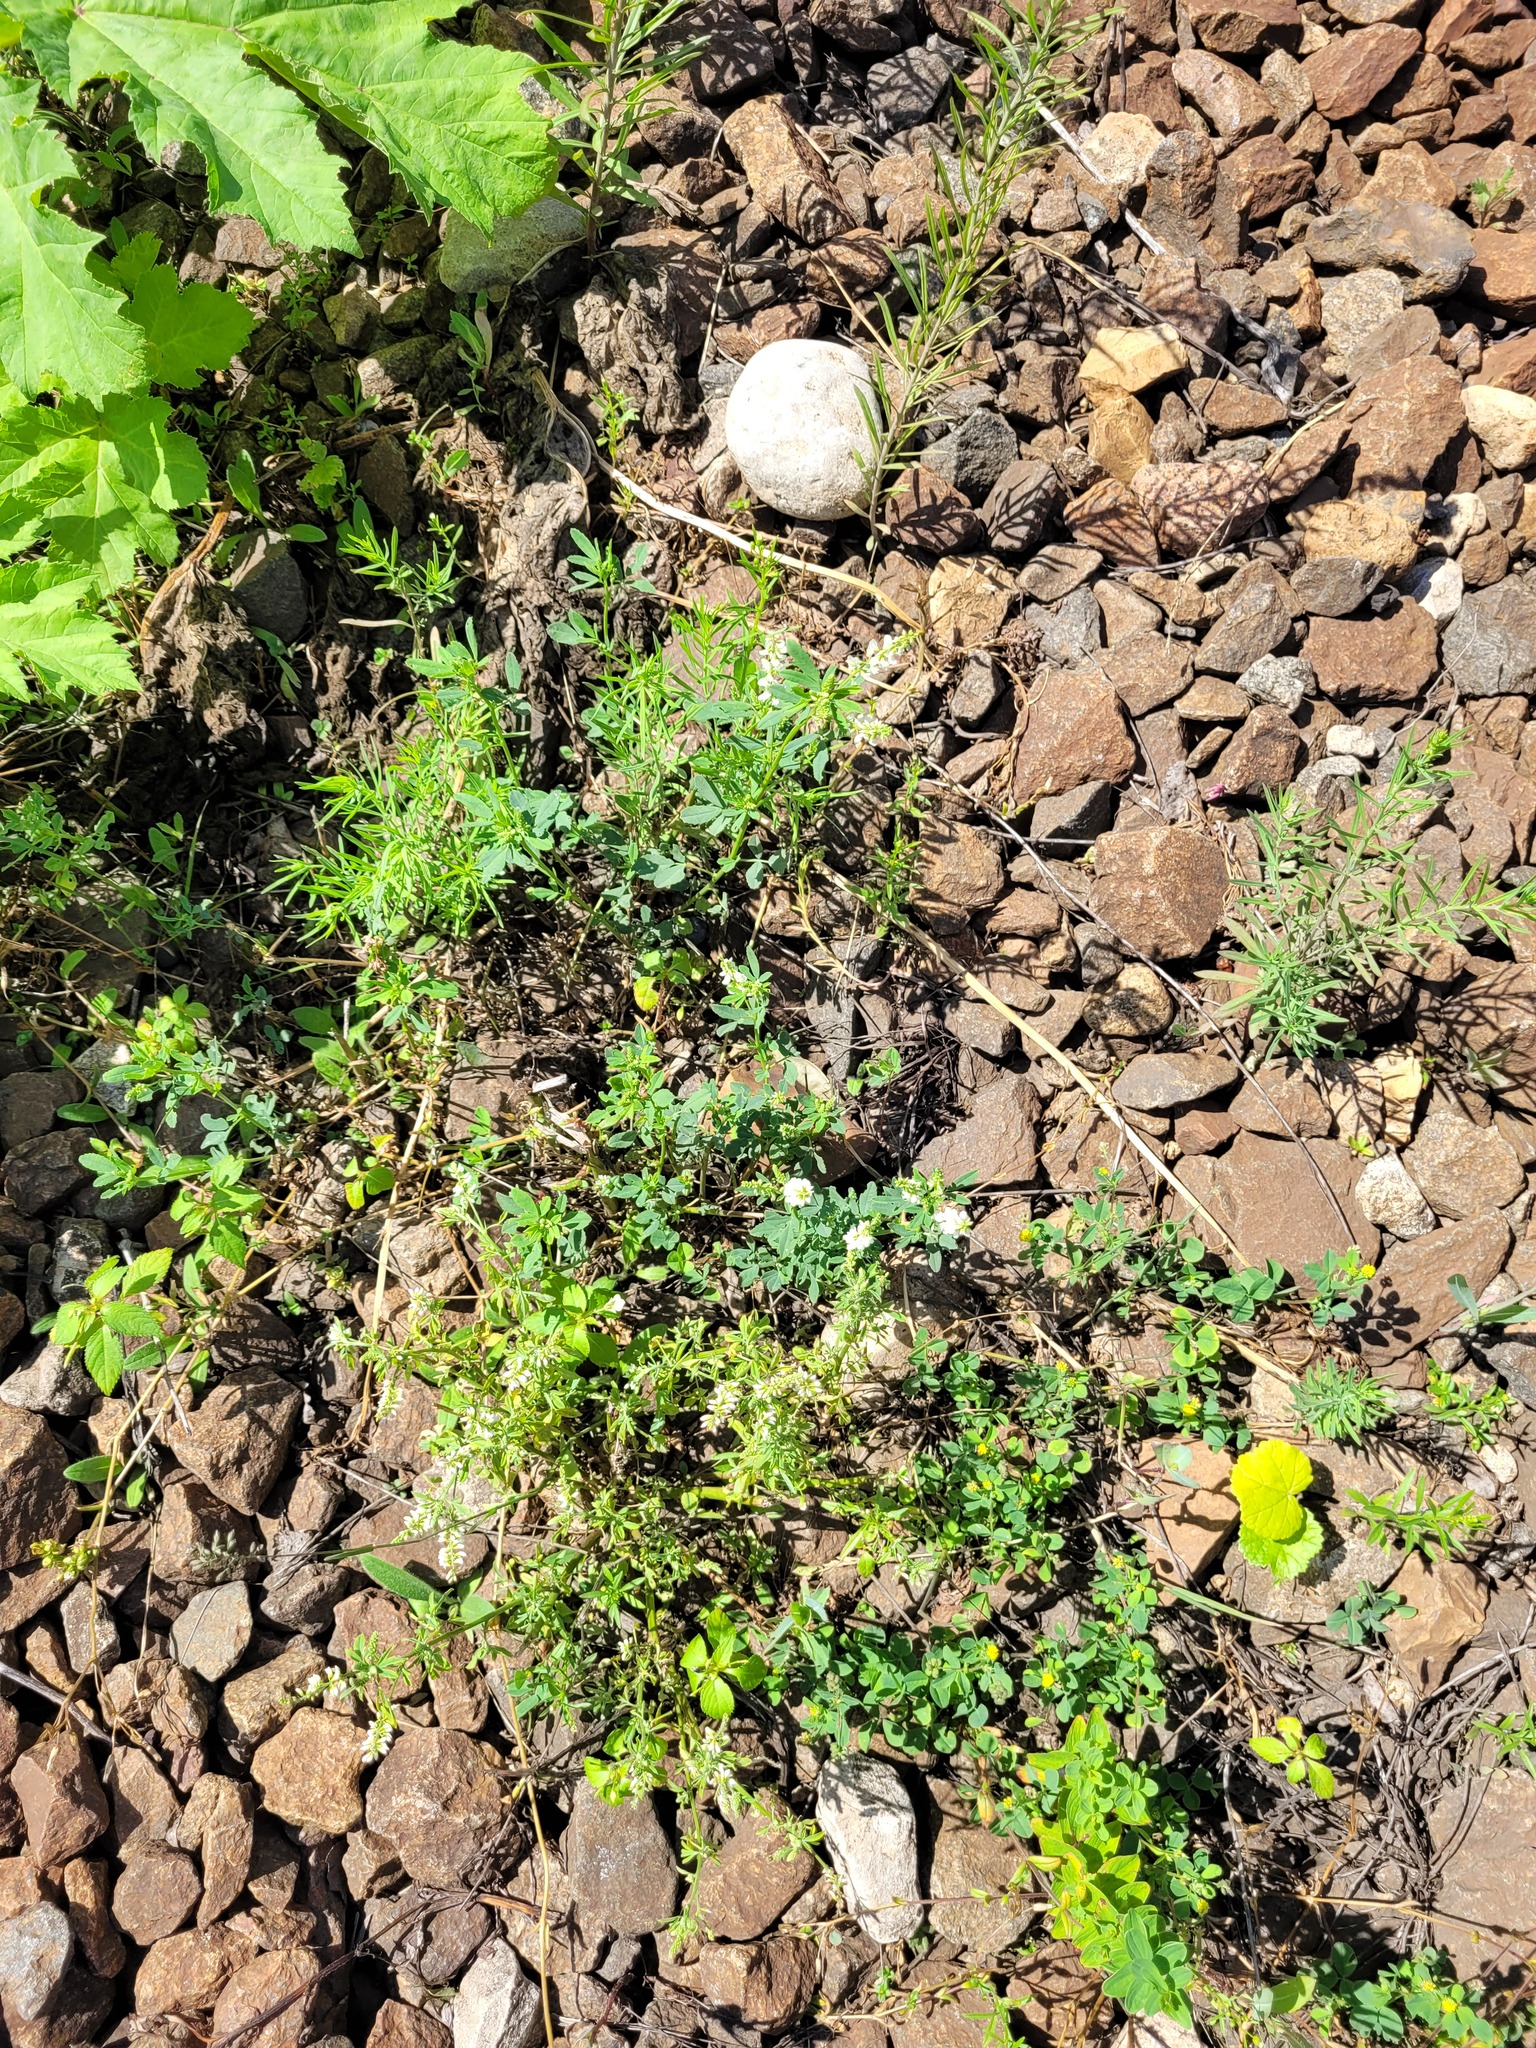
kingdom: Plantae
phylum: Tracheophyta
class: Magnoliopsida
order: Fabales
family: Fabaceae
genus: Melilotus
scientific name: Melilotus albus
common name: White melilot
